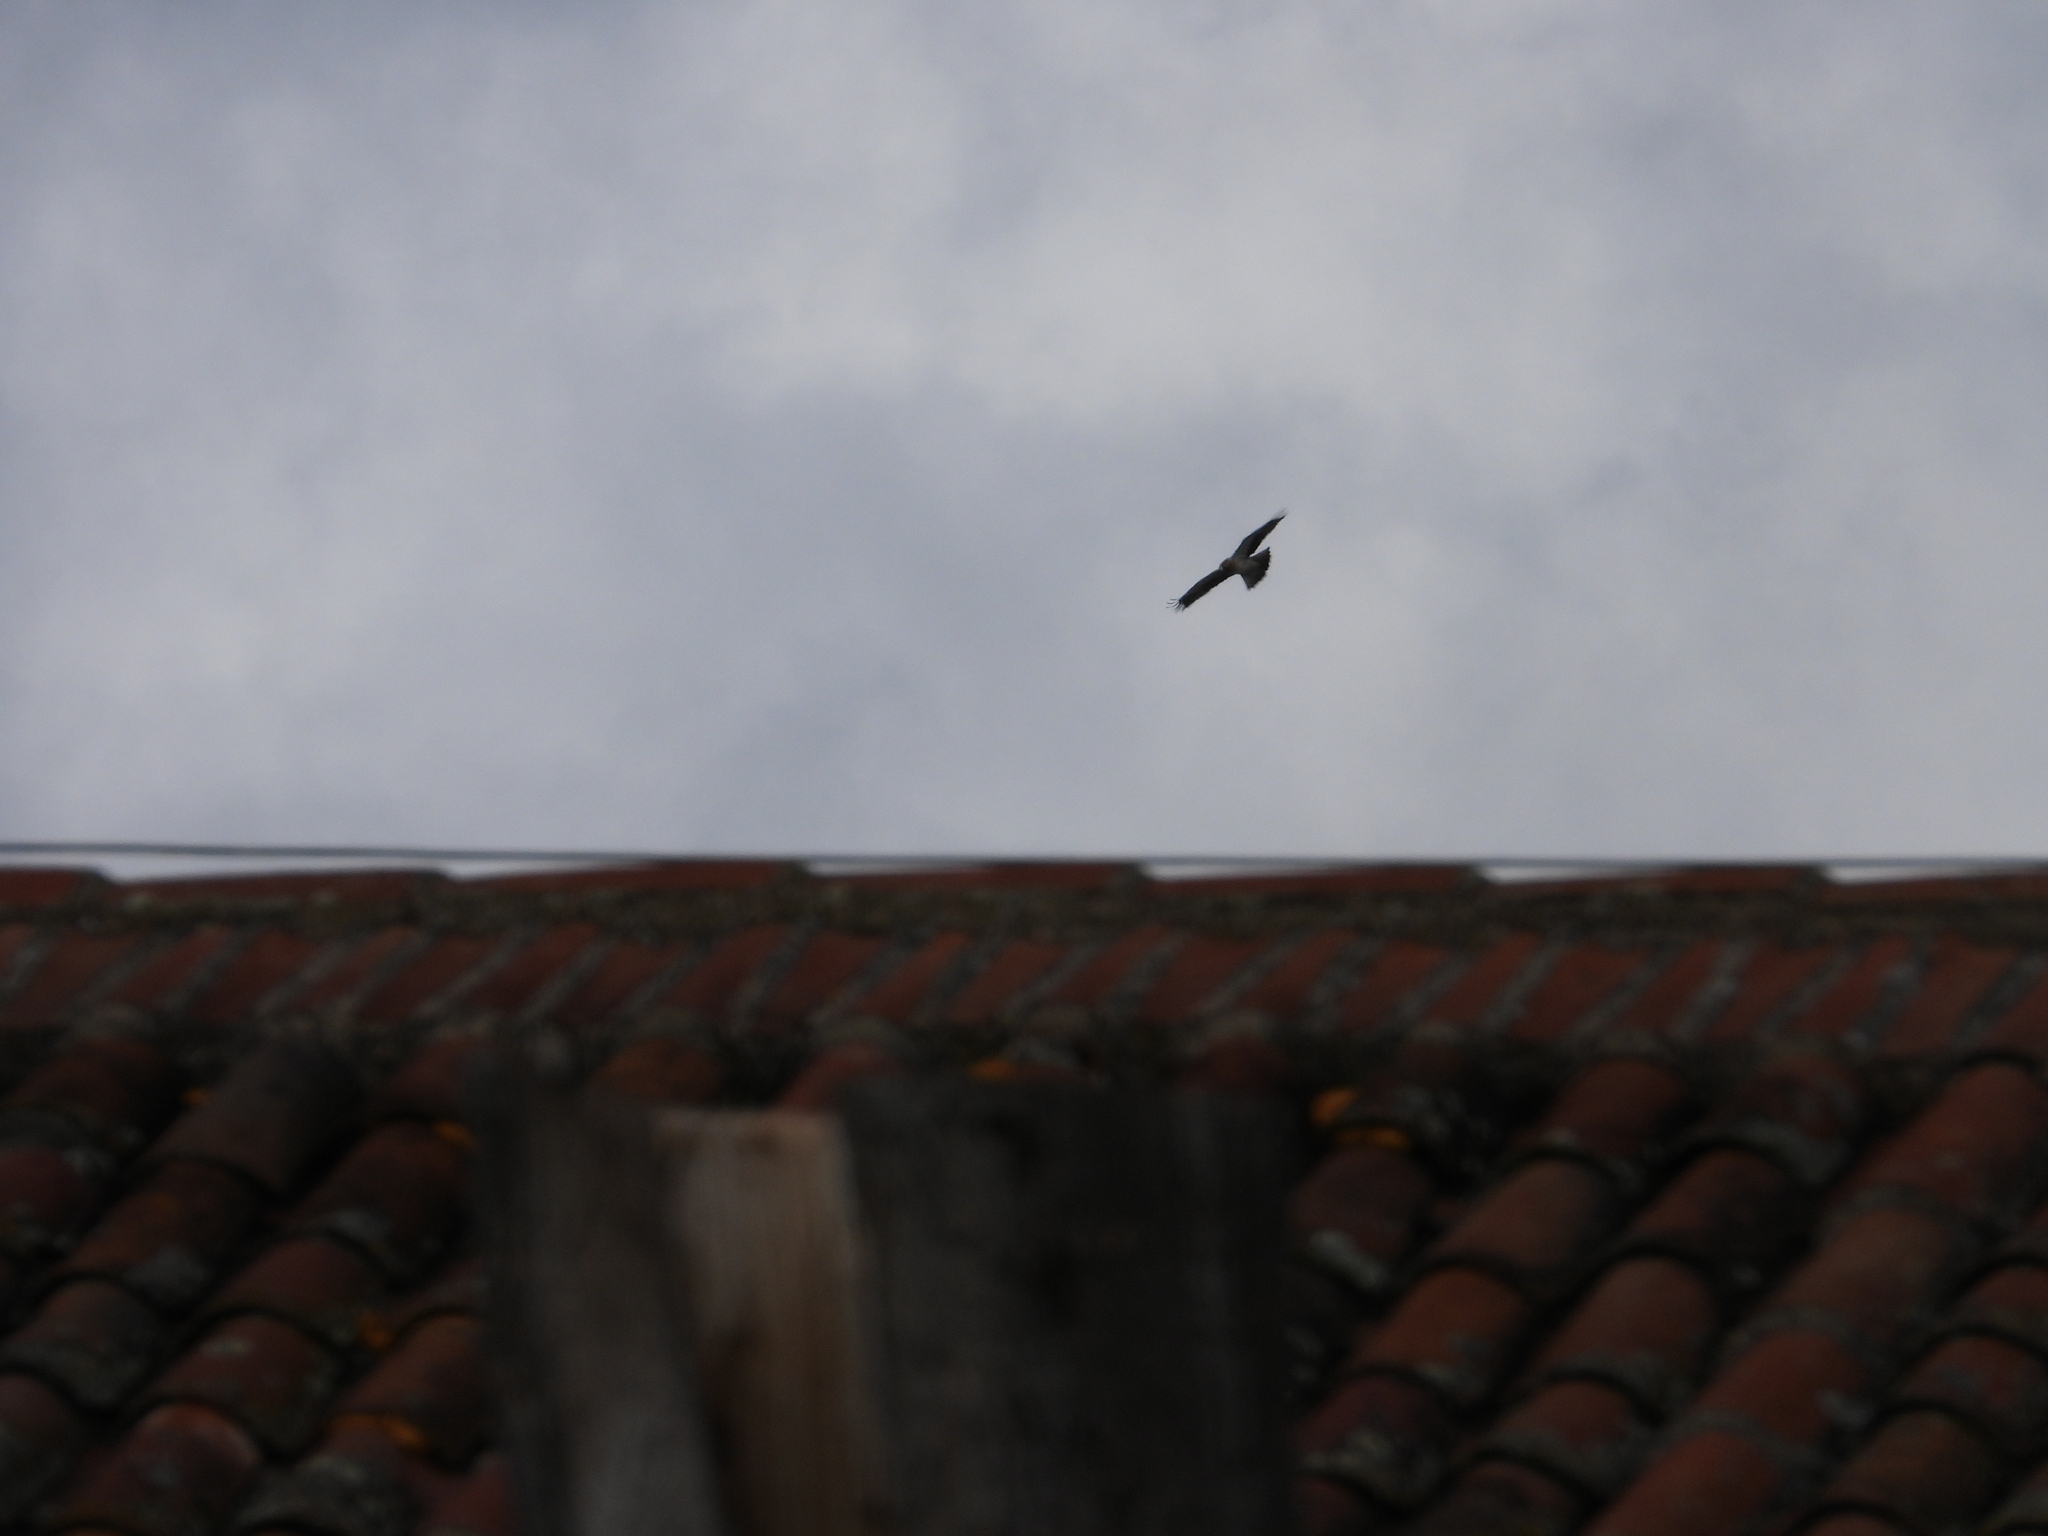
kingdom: Animalia
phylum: Chordata
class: Aves
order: Accipitriformes
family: Accipitridae
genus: Hieraaetus
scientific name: Hieraaetus pennatus
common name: Booted eagle
